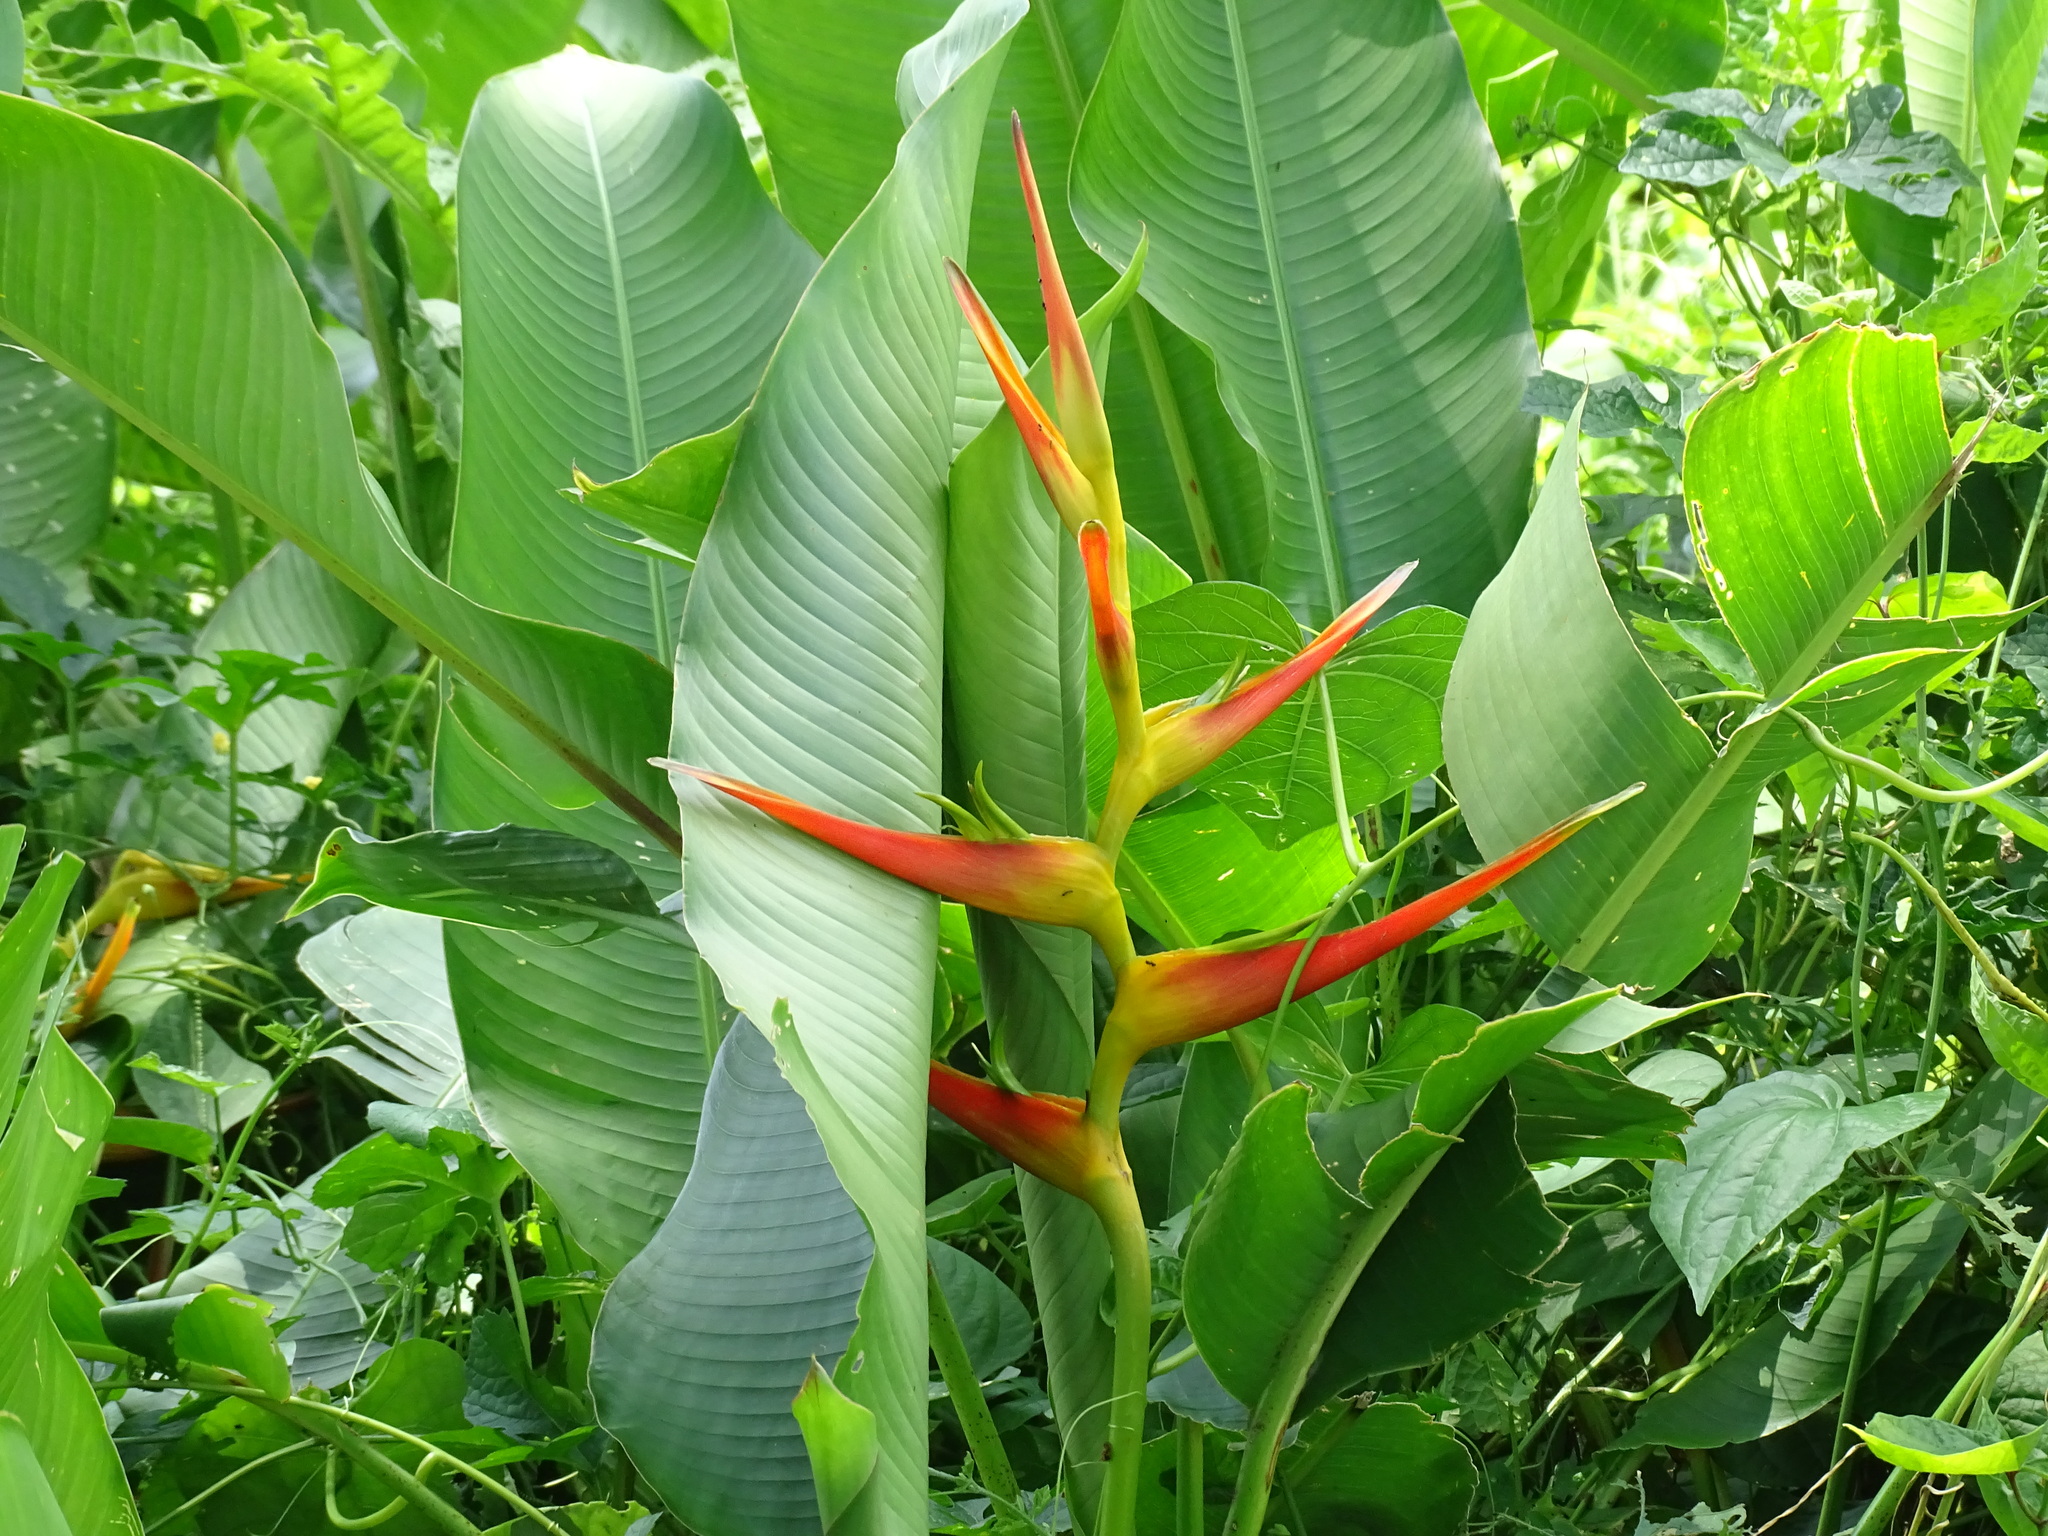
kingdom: Plantae
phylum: Tracheophyta
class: Liliopsida
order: Zingiberales
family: Heliconiaceae
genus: Heliconia
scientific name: Heliconia latispatha
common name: Expanded lobsterclaw
